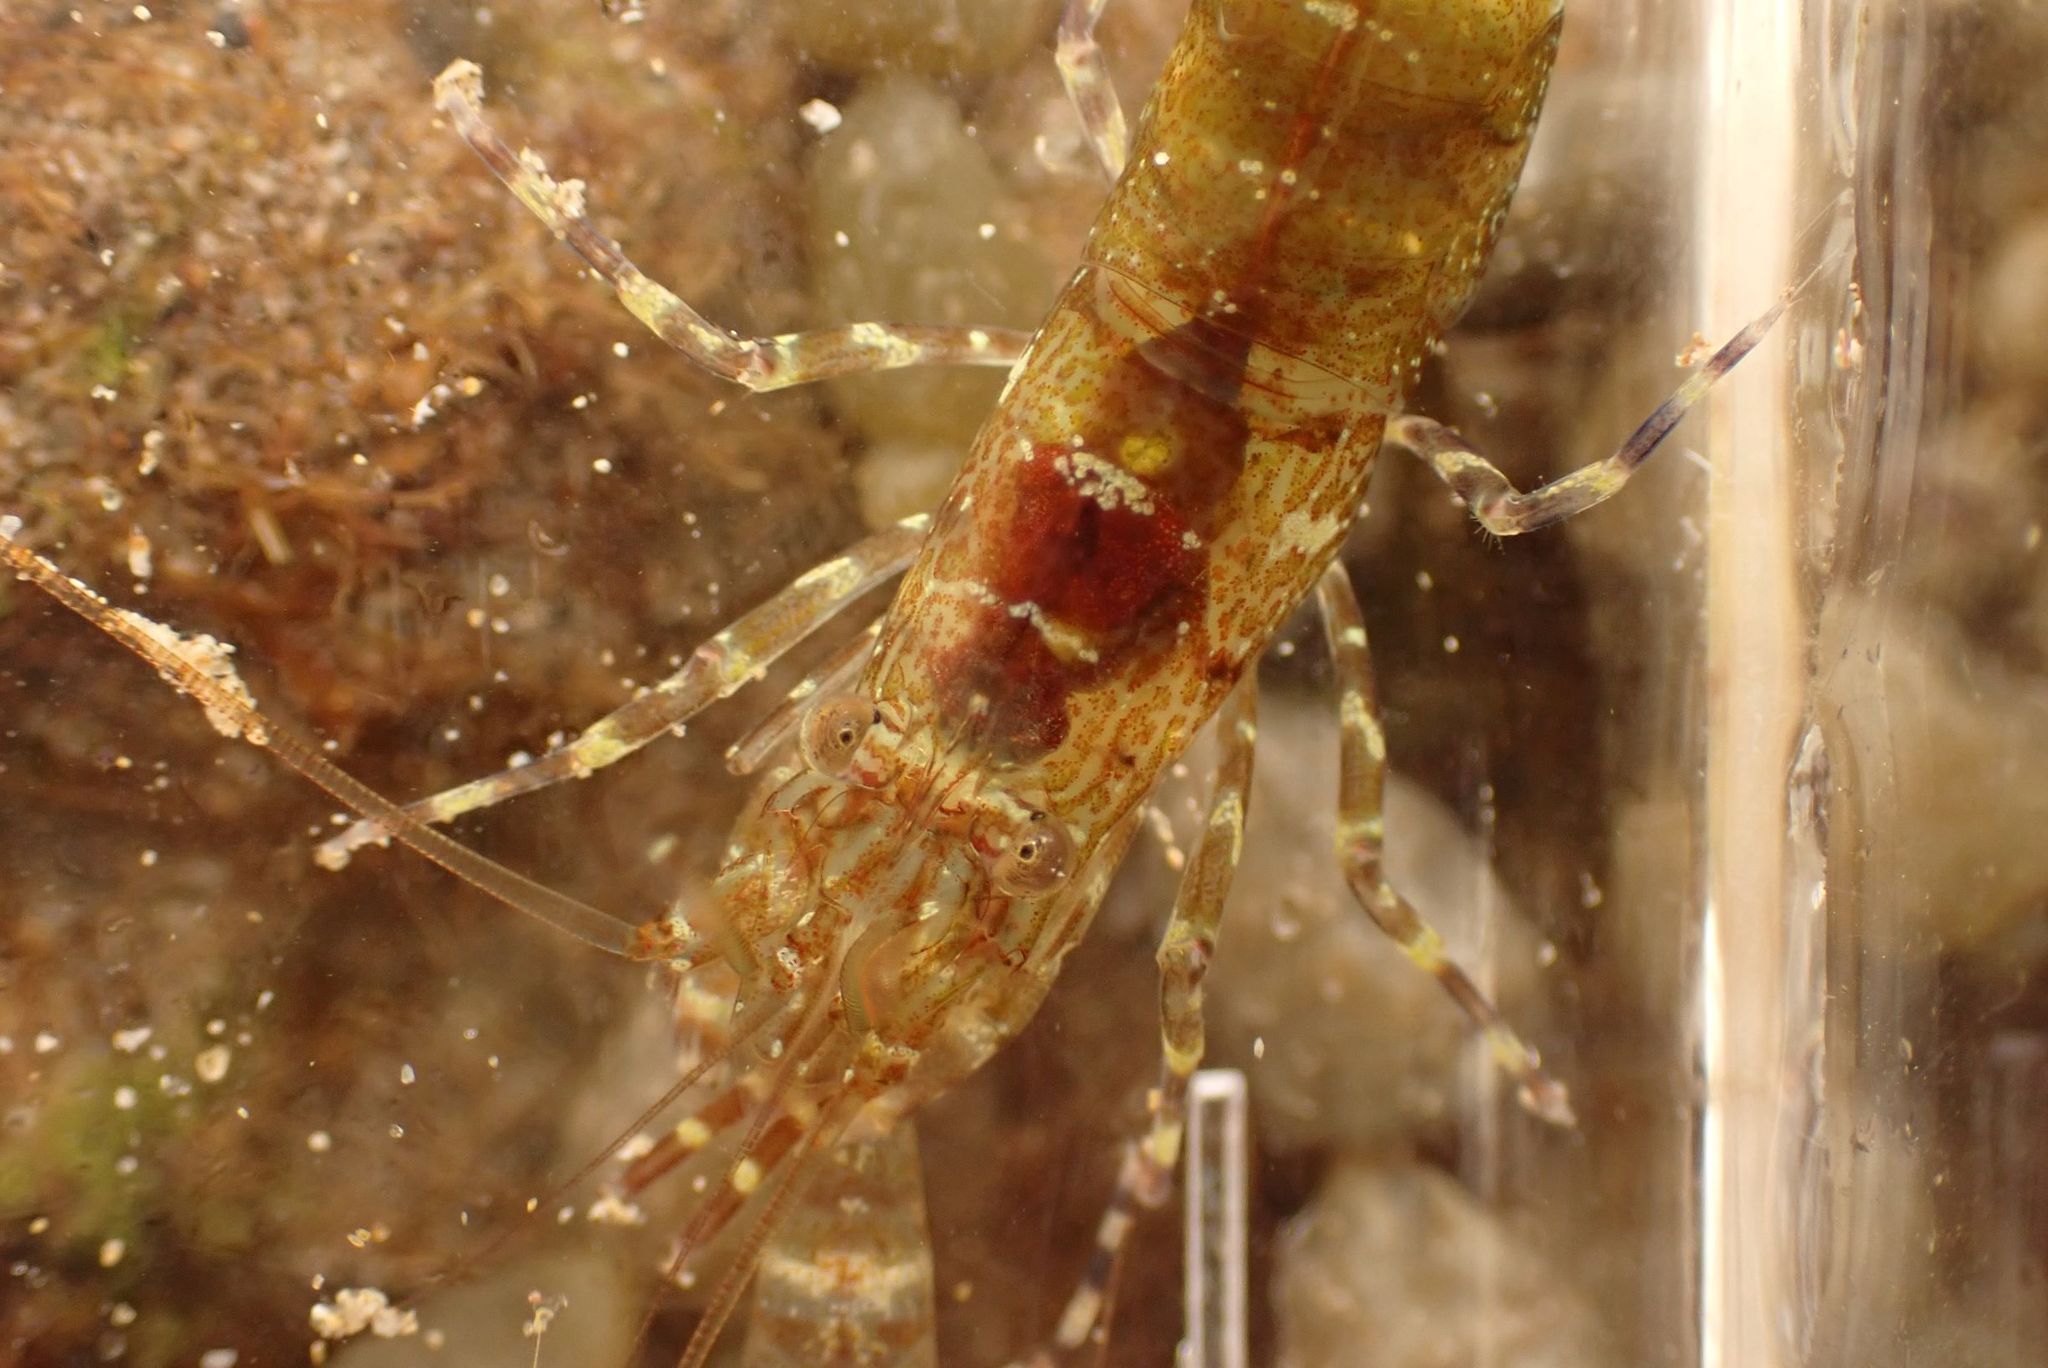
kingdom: Animalia
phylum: Arthropoda
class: Malacostraca
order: Decapoda
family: Hippolytidae
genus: Alope
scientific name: Alope orientalis
